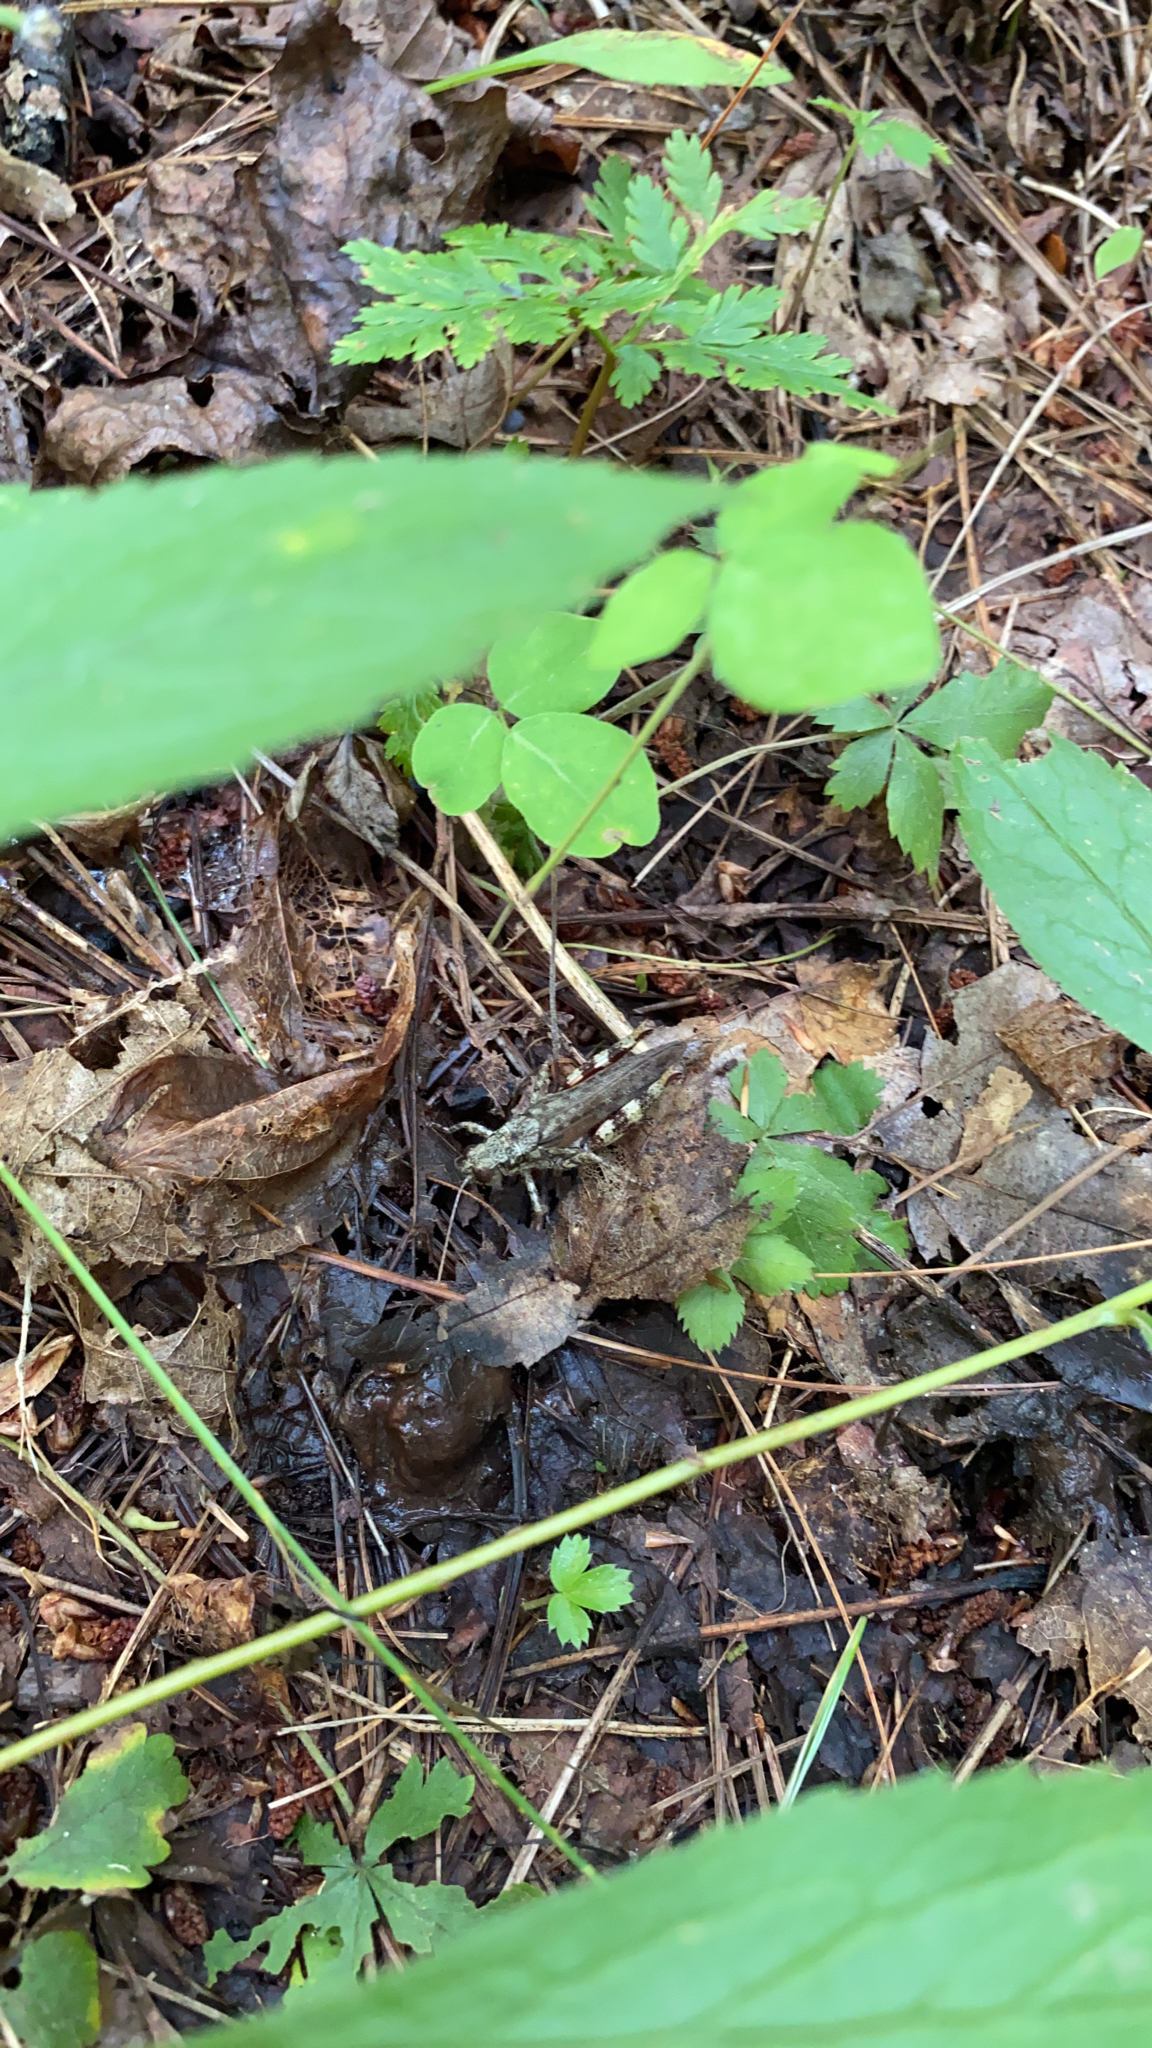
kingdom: Animalia
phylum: Arthropoda
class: Insecta
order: Orthoptera
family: Acrididae
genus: Melanoplus
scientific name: Melanoplus punctulatus
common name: Pine-tree spur-throat grasshopper
